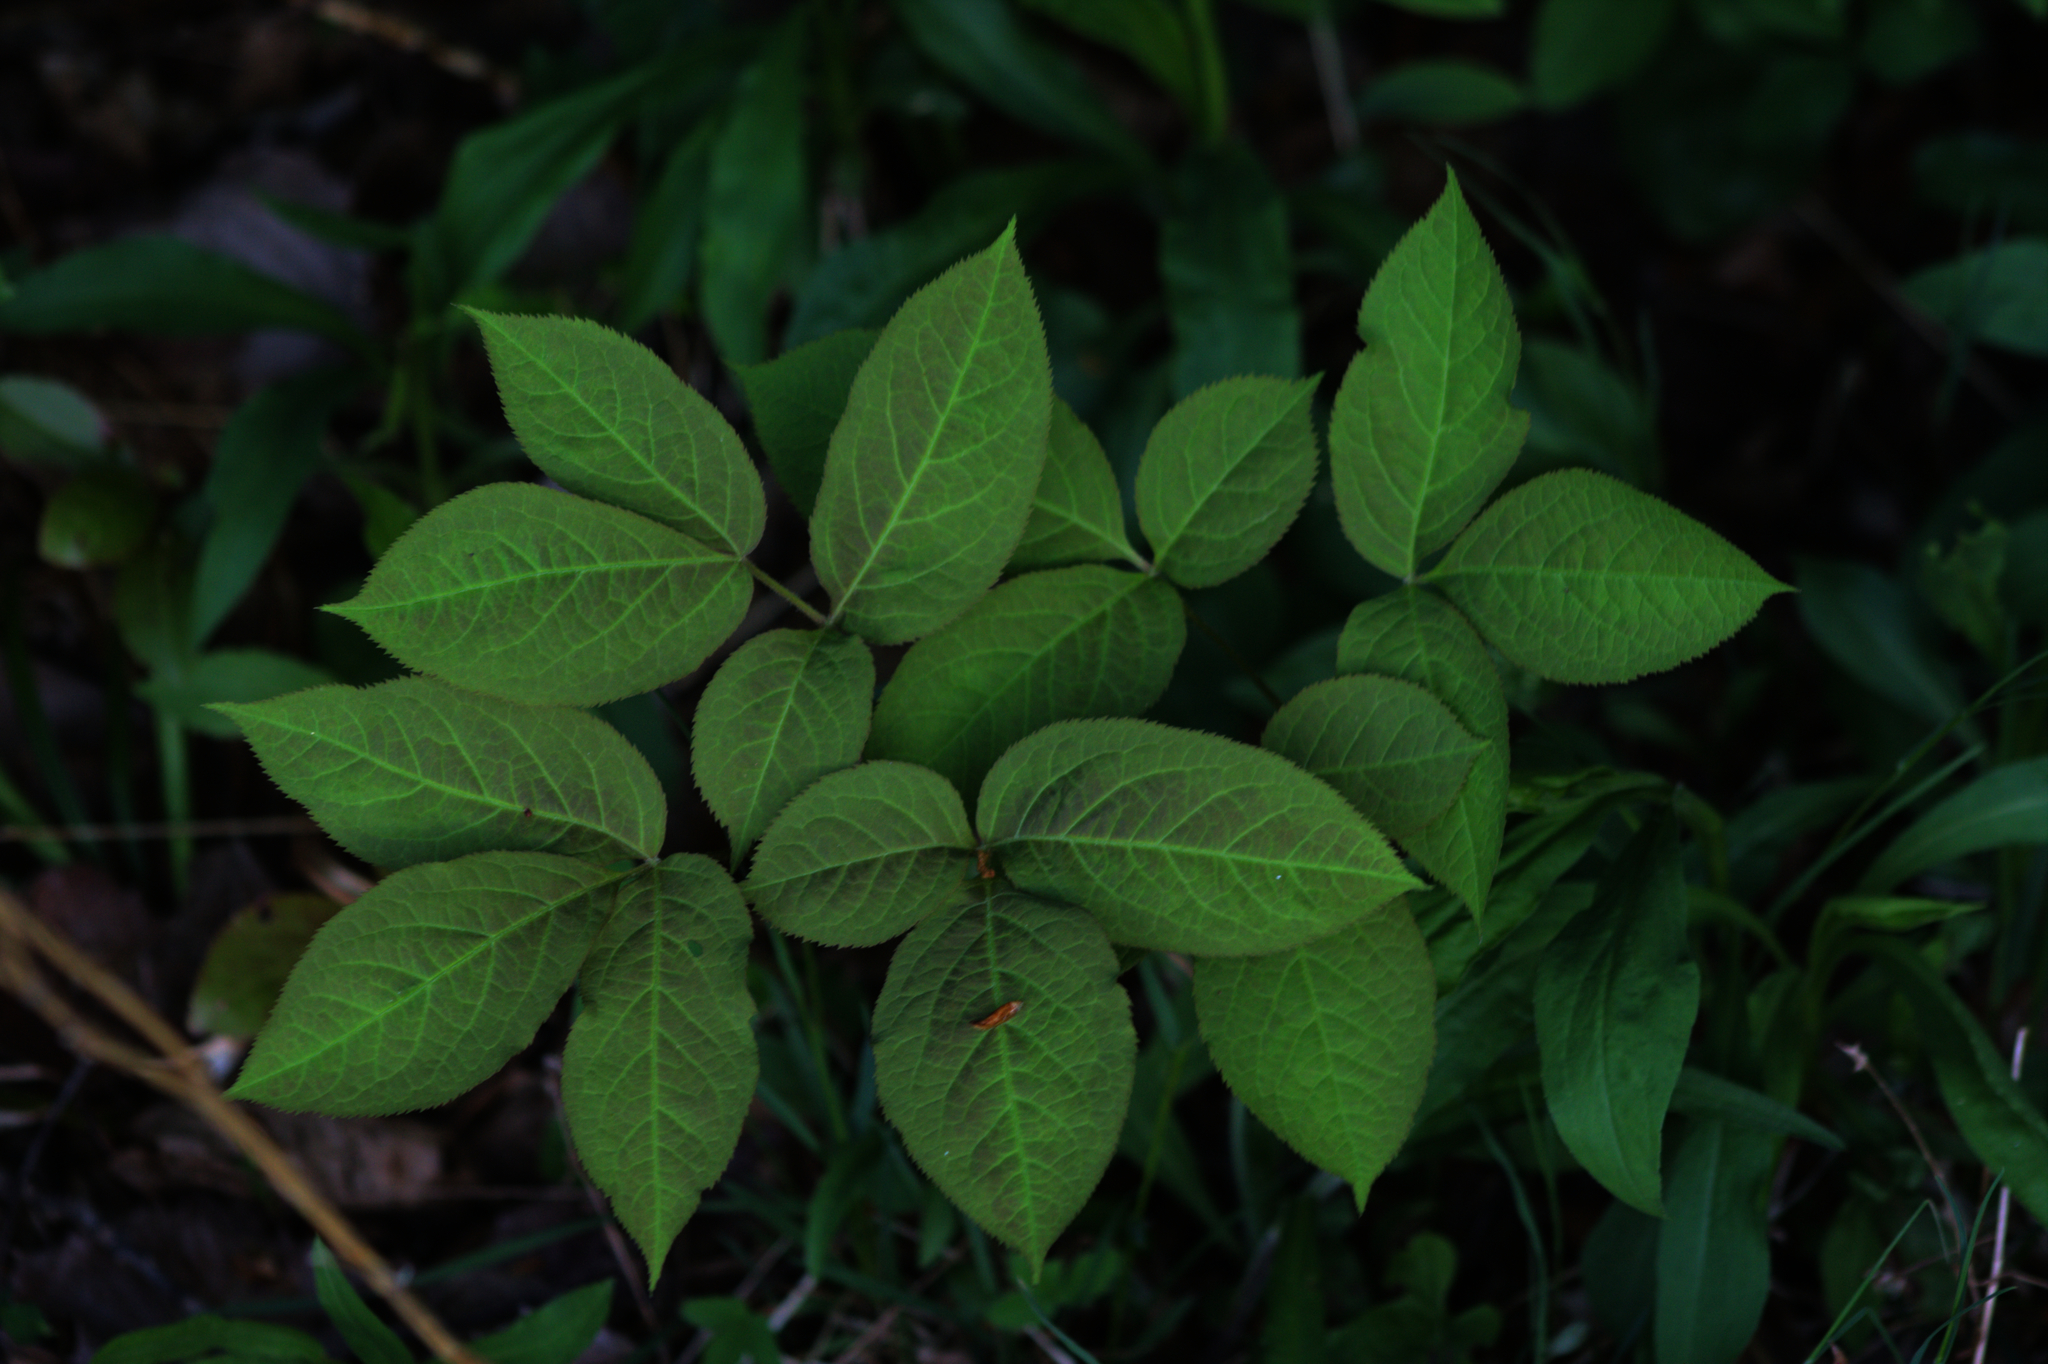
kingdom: Plantae
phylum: Tracheophyta
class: Magnoliopsida
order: Apiales
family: Araliaceae
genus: Aralia
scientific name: Aralia nudicaulis
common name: Wild sarsaparilla
